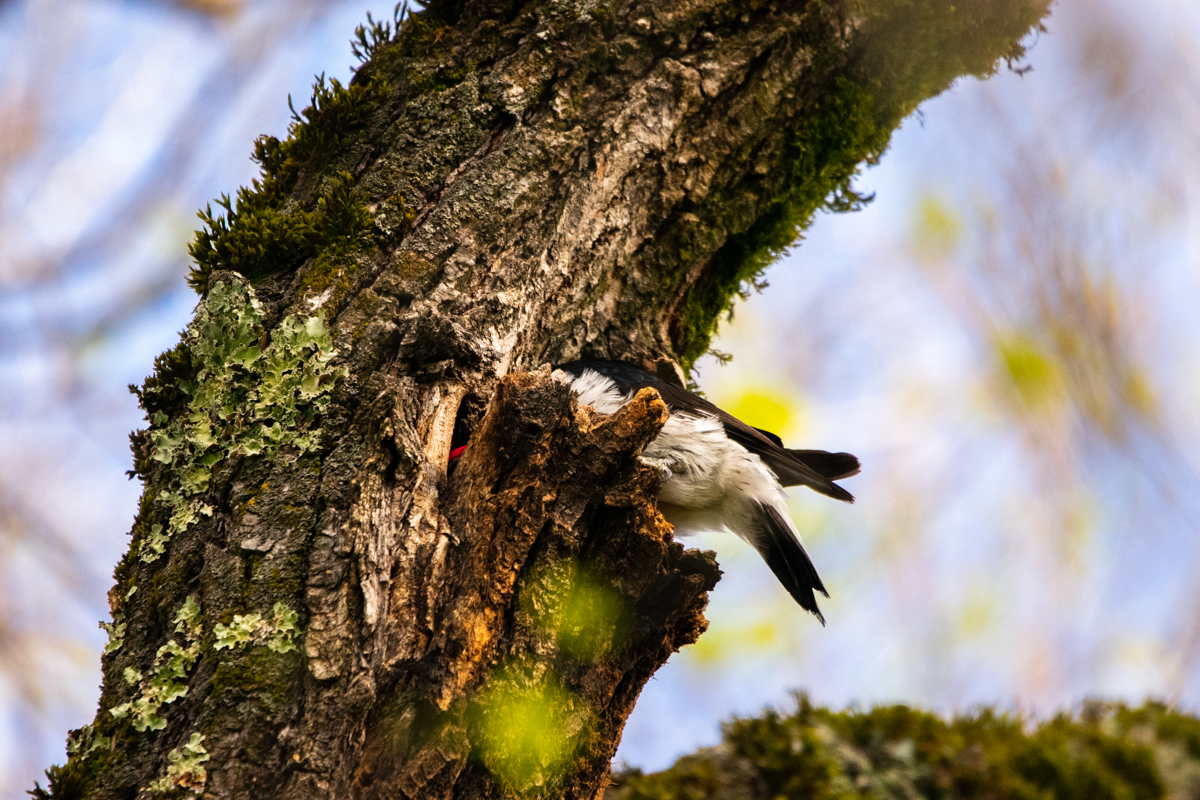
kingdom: Animalia
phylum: Chordata
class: Aves
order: Piciformes
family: Picidae
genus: Melanerpes
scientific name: Melanerpes formicivorus
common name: Acorn woodpecker
